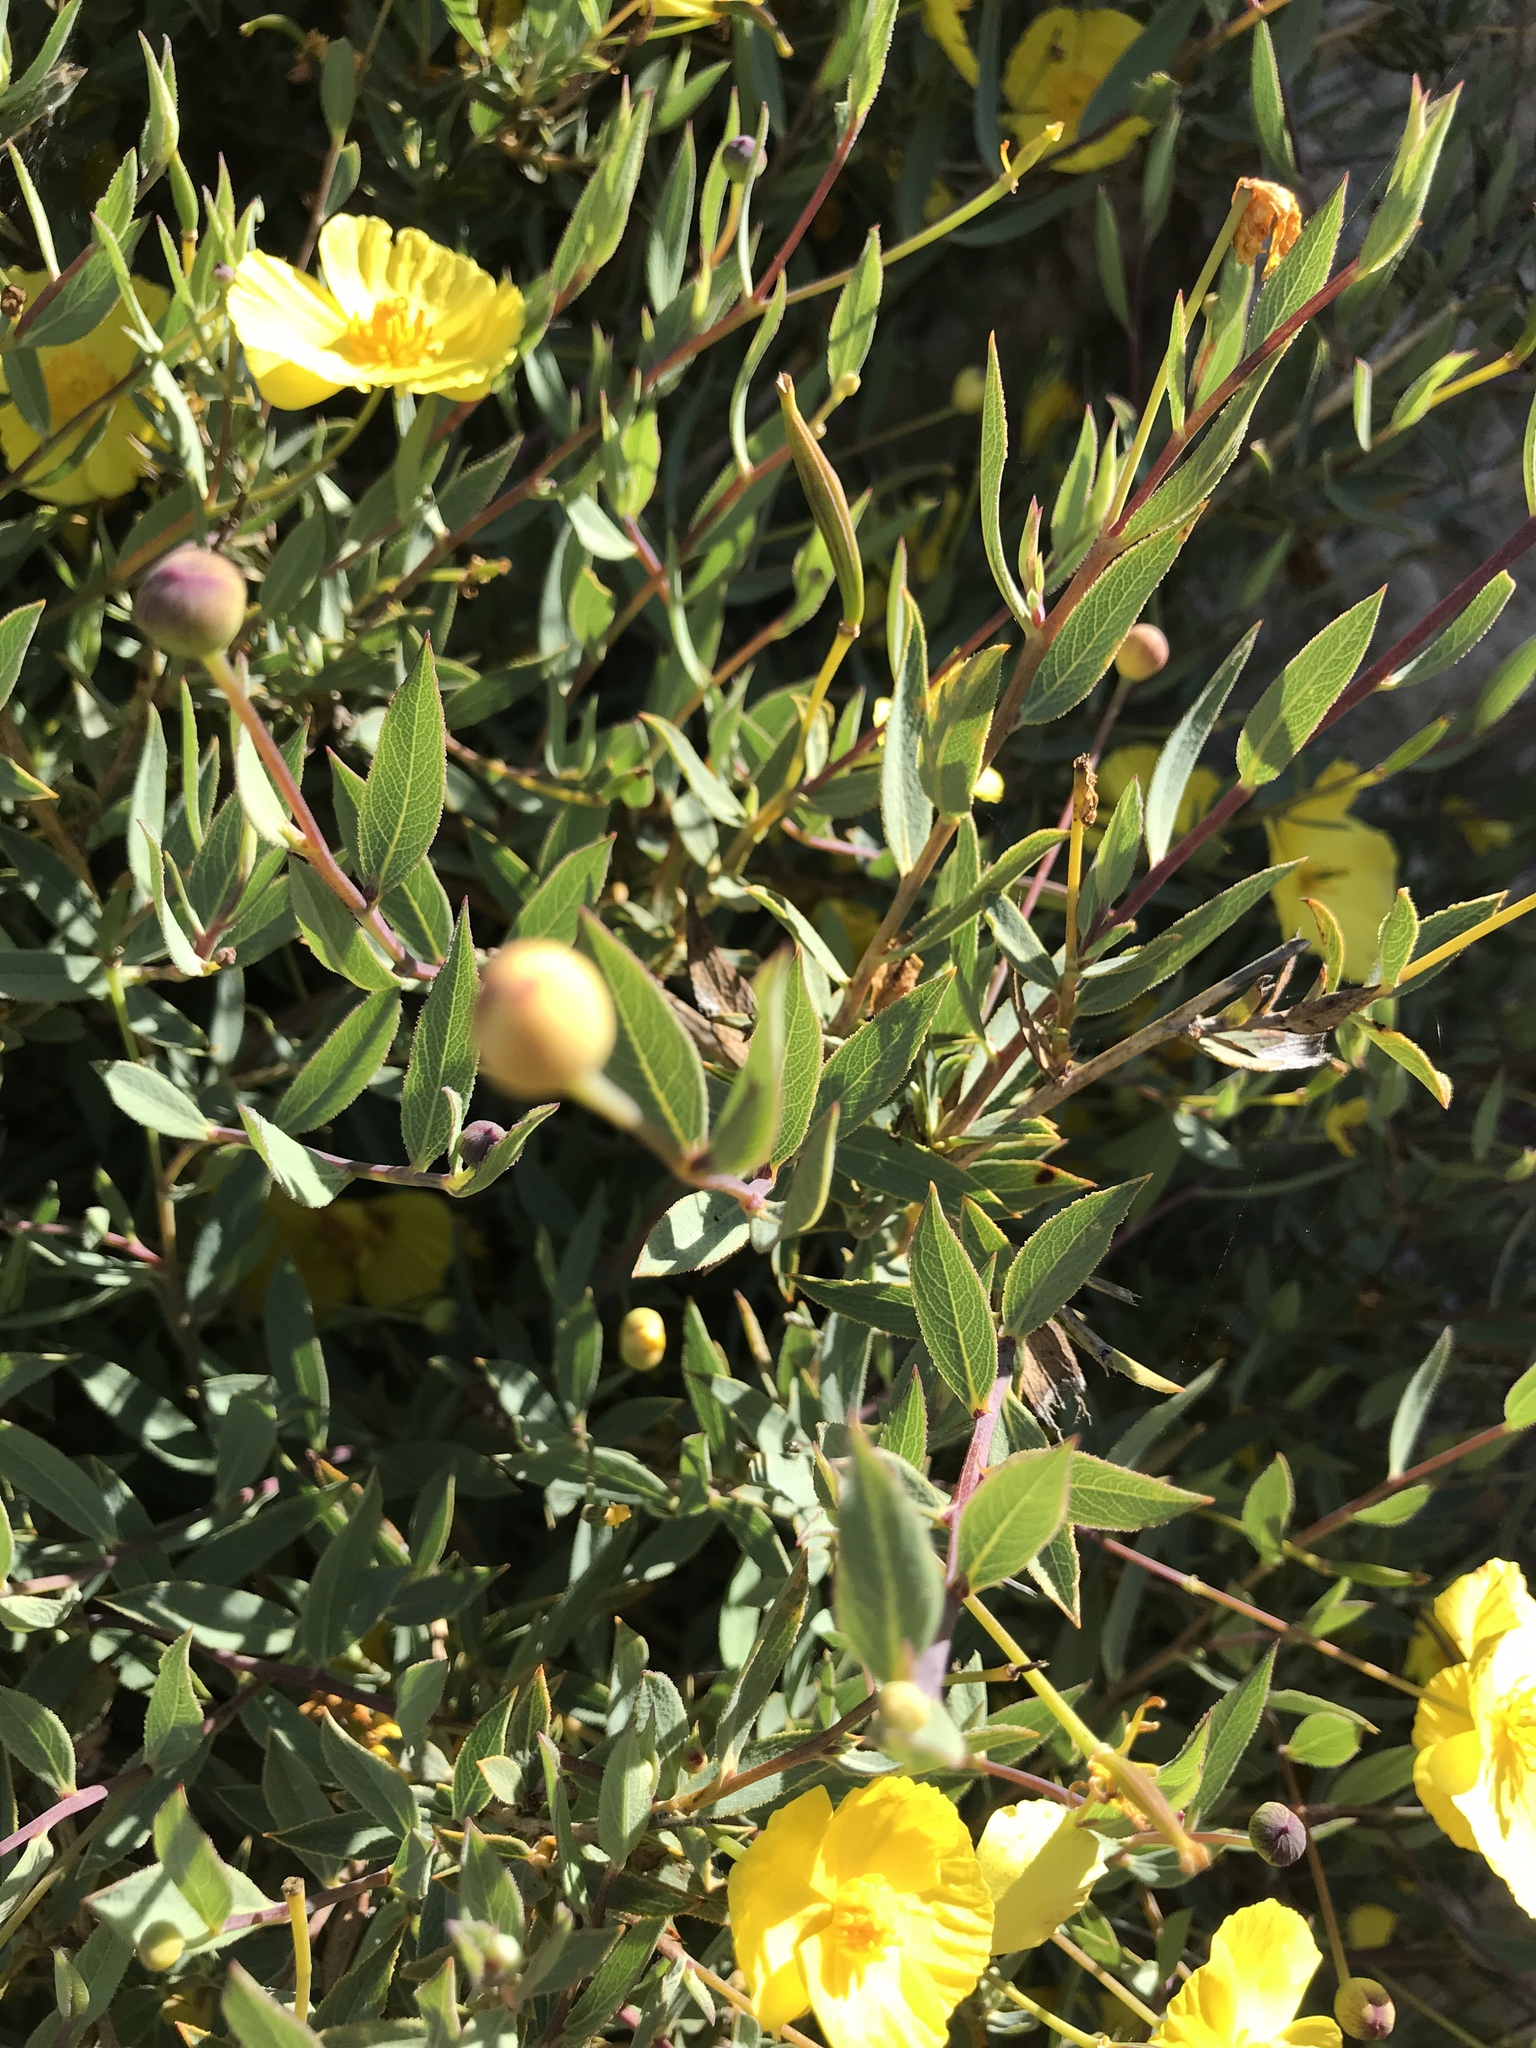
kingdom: Plantae
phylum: Tracheophyta
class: Magnoliopsida
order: Ranunculales
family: Papaveraceae
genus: Dendromecon
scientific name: Dendromecon rigida
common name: Tree poppy
